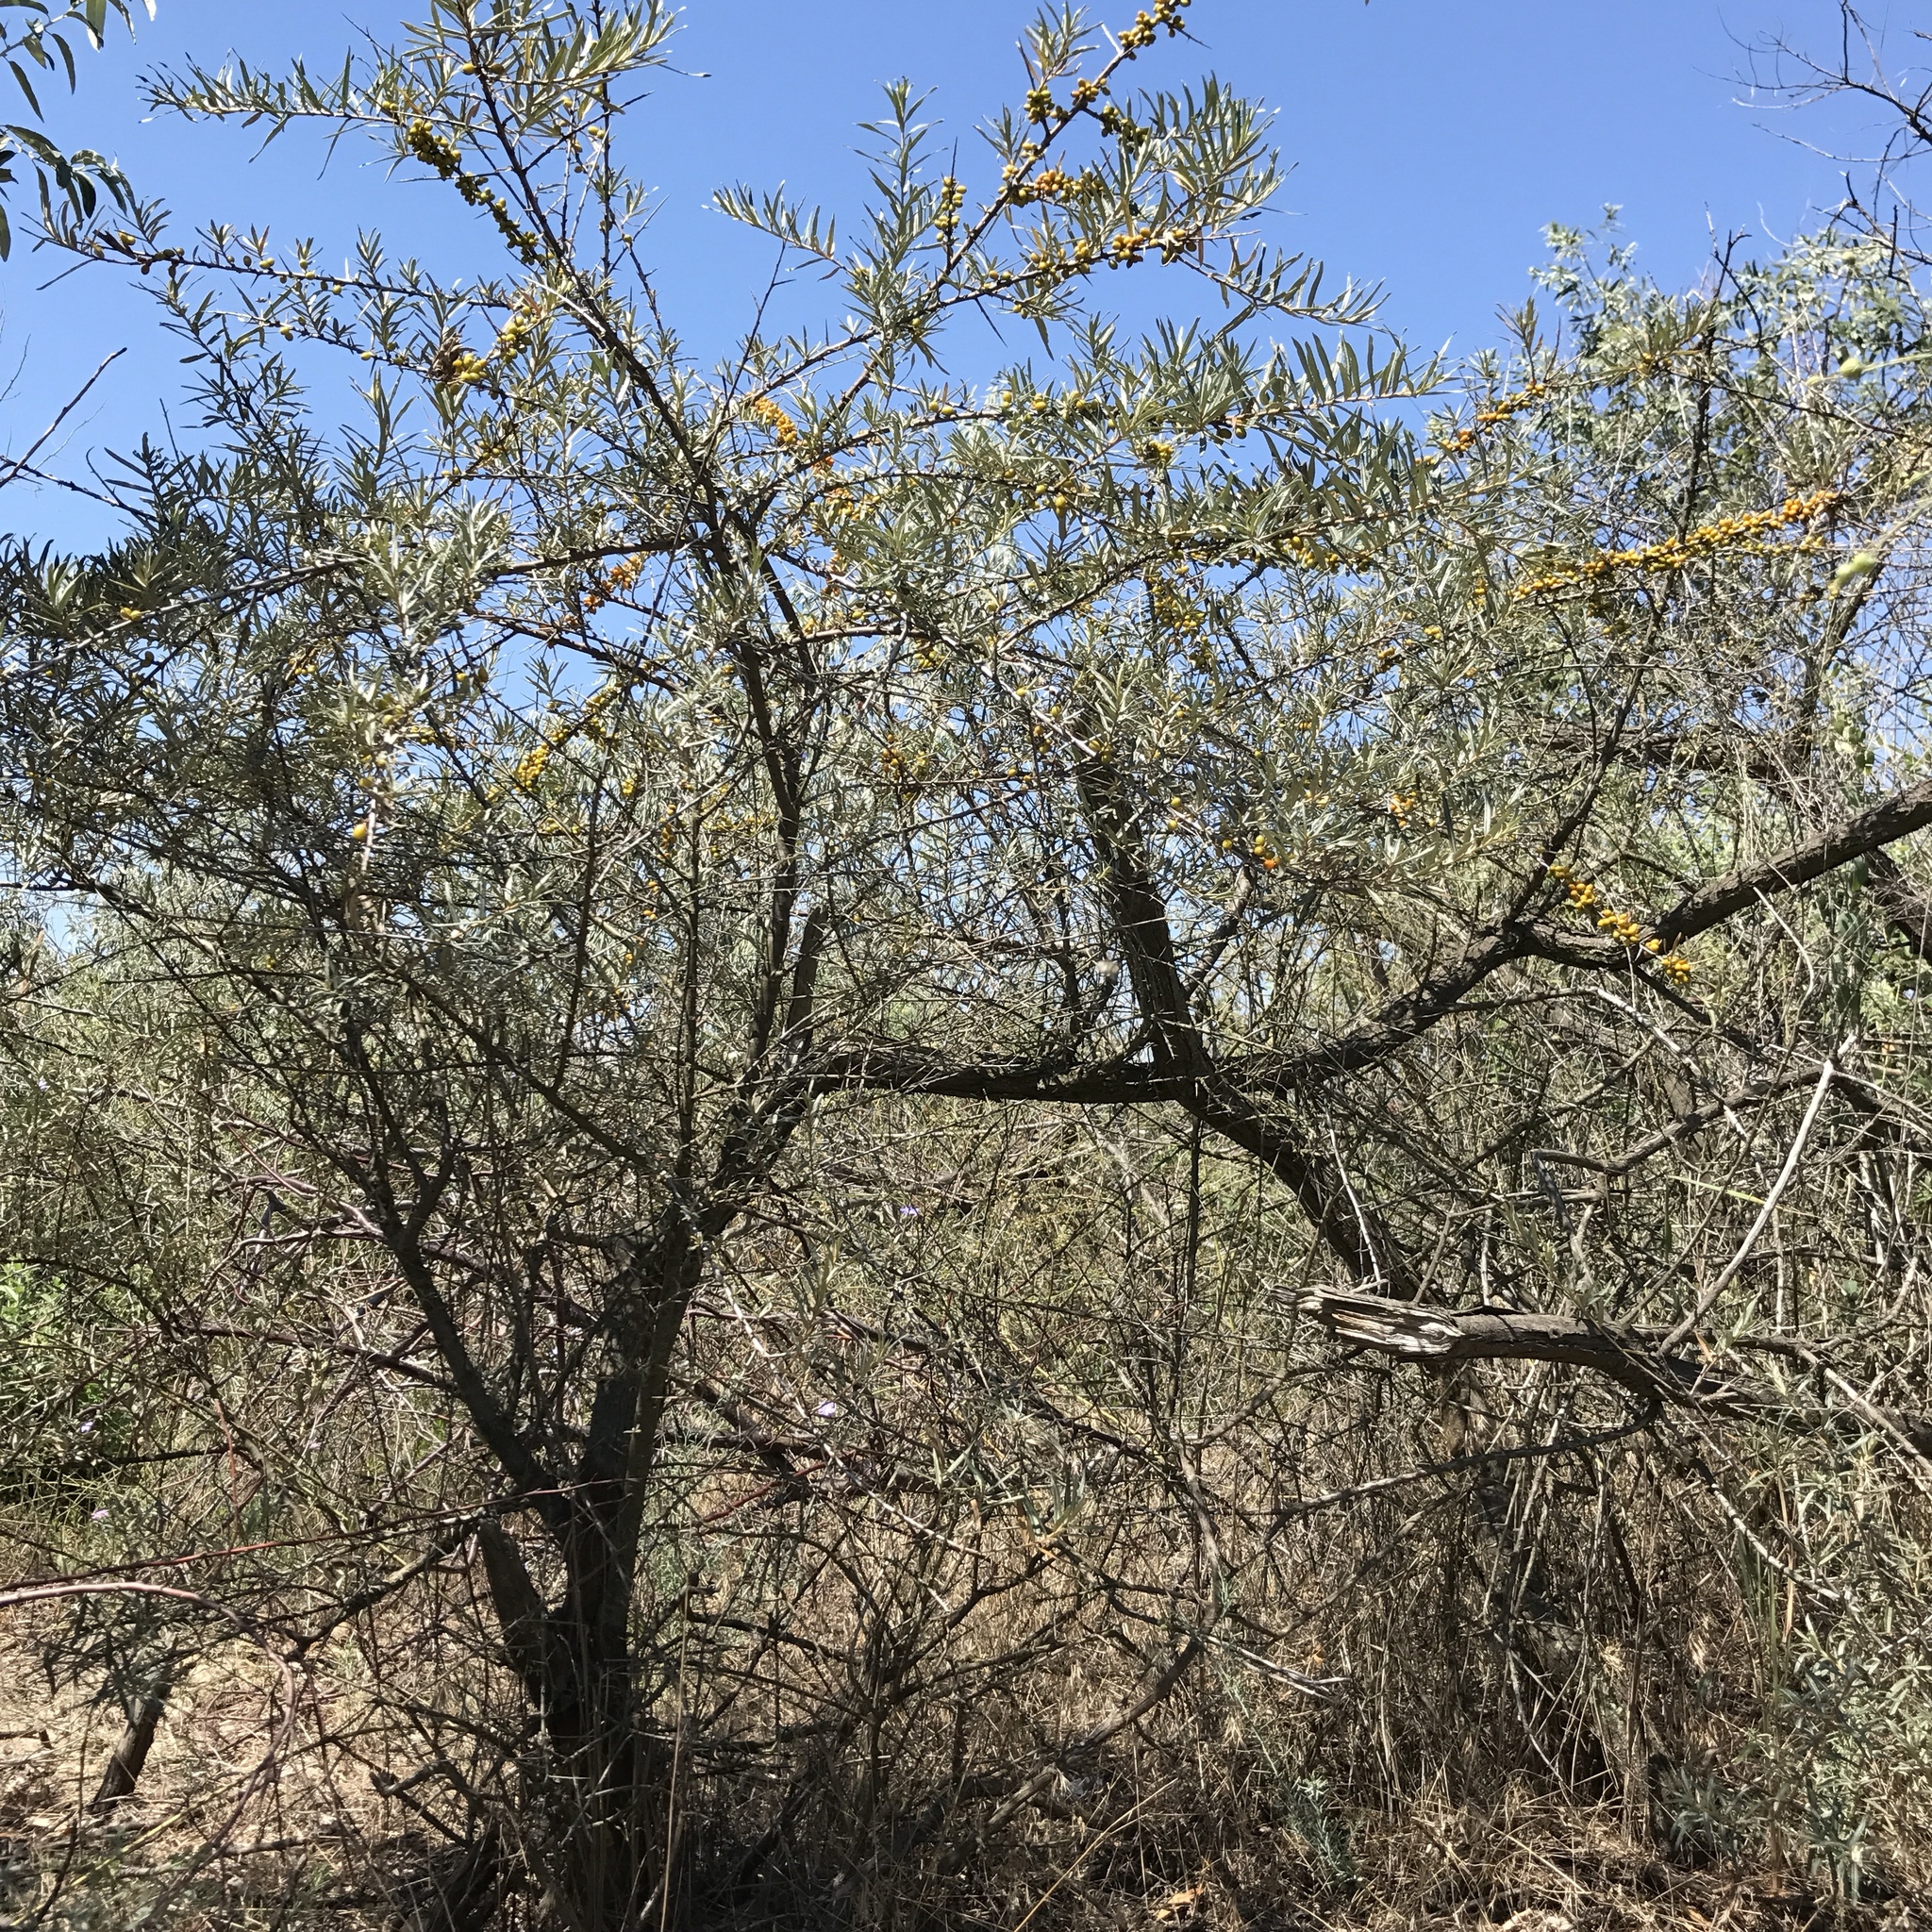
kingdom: Plantae
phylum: Tracheophyta
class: Magnoliopsida
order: Rosales
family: Elaeagnaceae
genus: Hippophae
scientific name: Hippophae rhamnoides
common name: Sea-buckthorn
